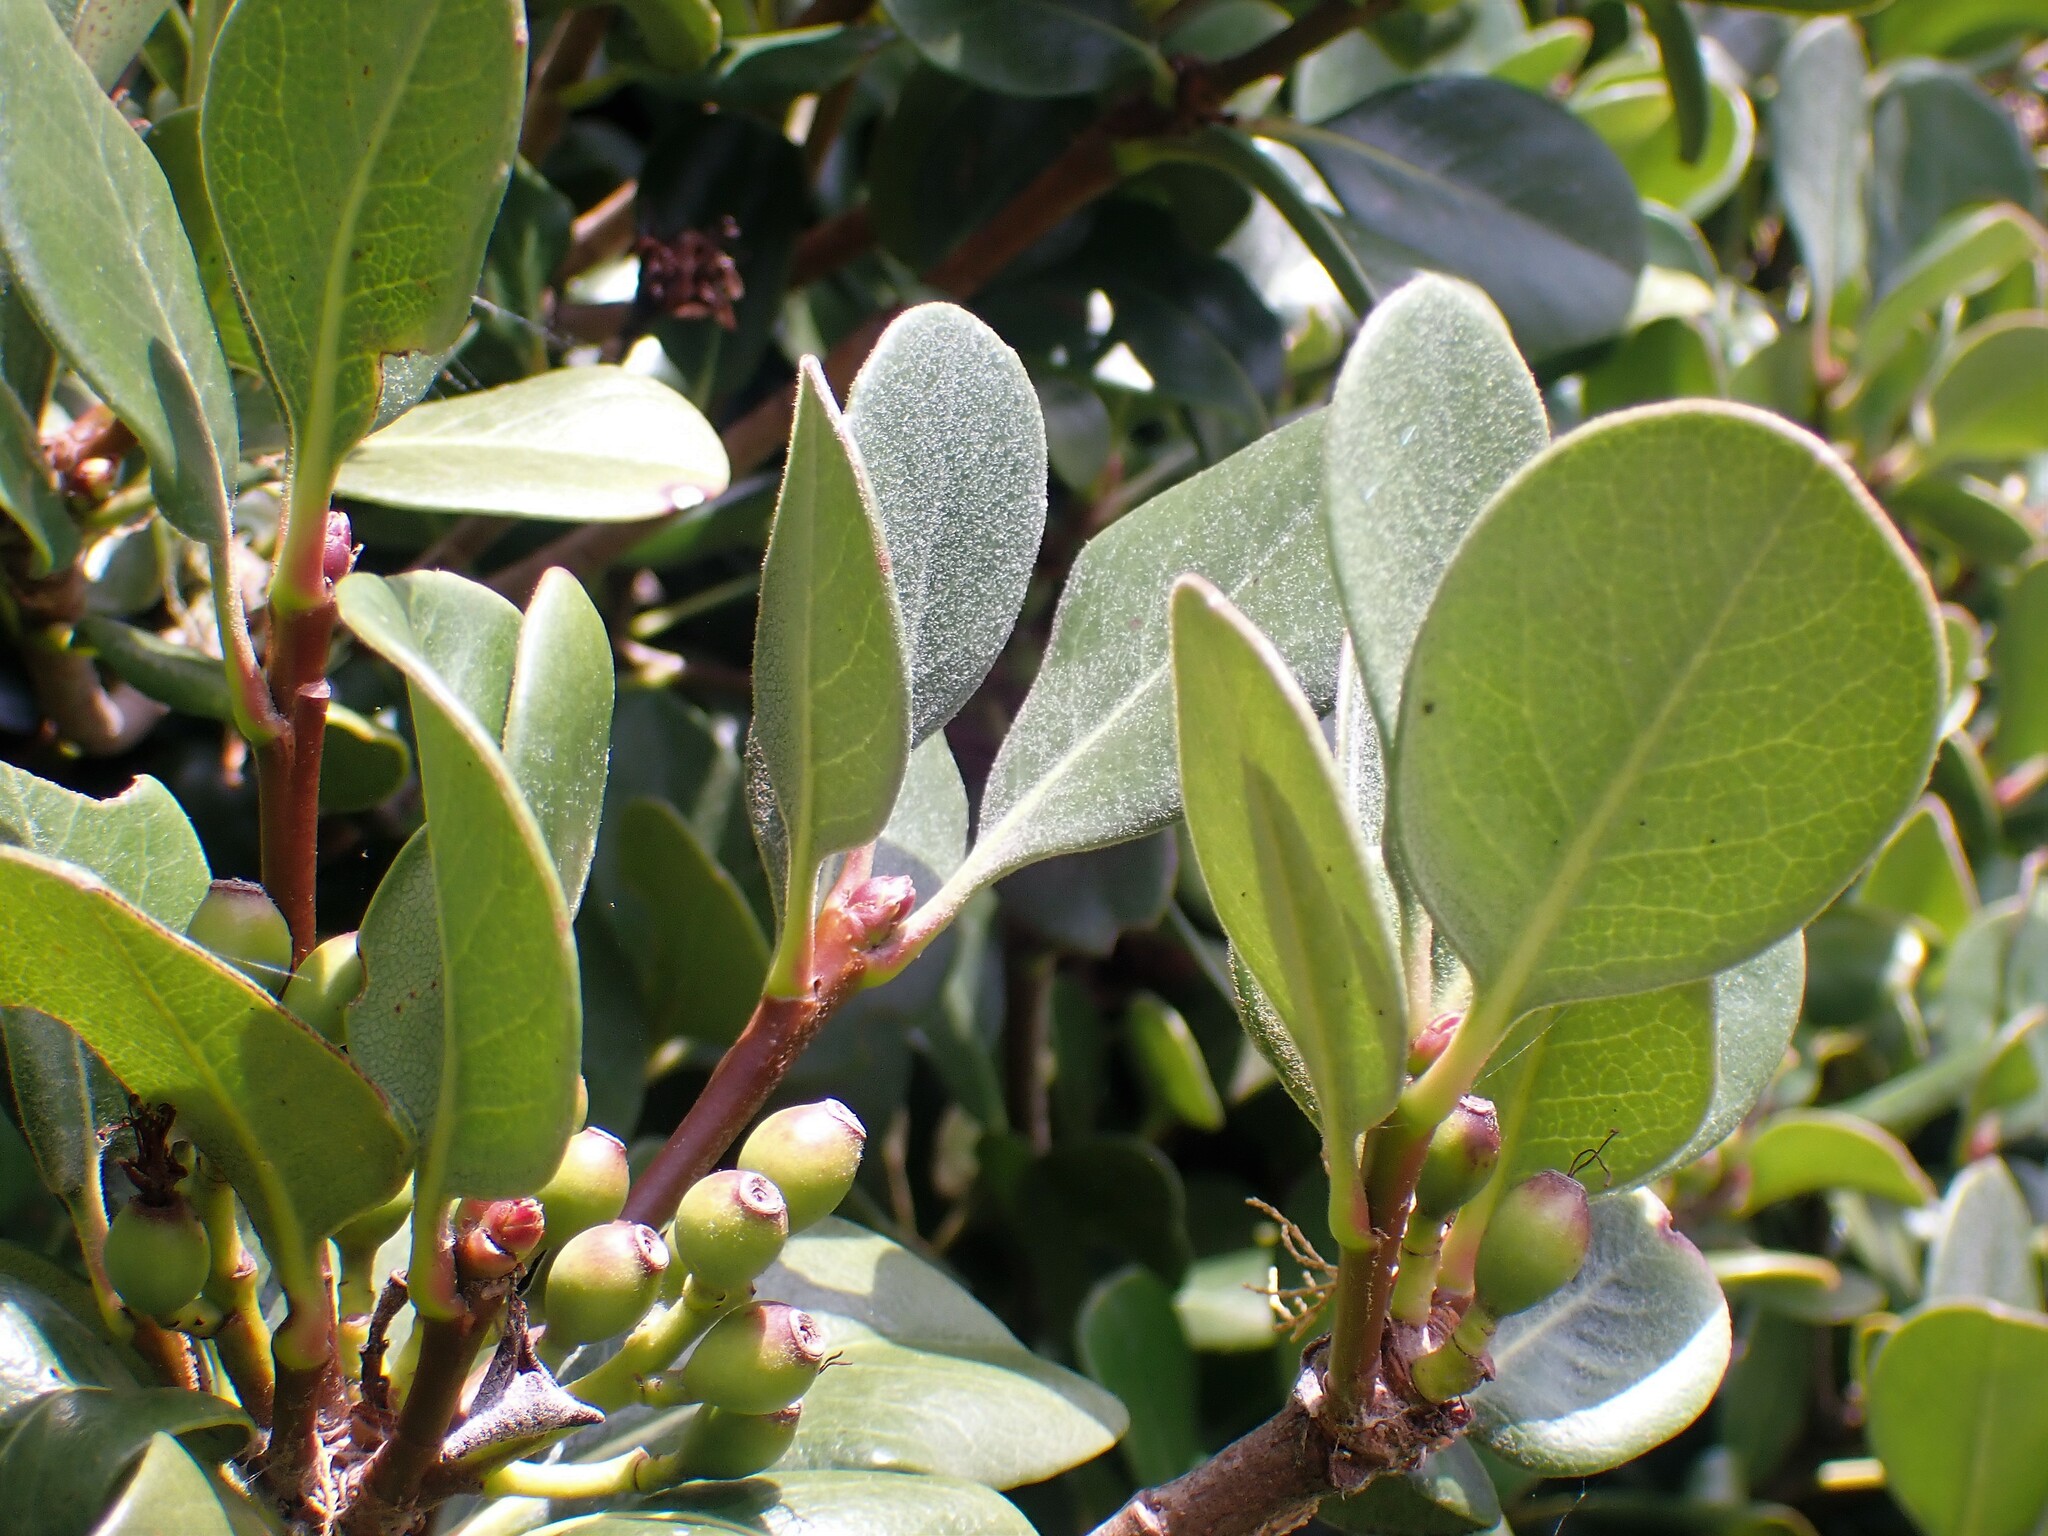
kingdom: Plantae
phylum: Tracheophyta
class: Magnoliopsida
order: Rosales
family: Rosaceae
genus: Rhaphiolepis
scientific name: Rhaphiolepis umbellata
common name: Yedda-hawthorn
